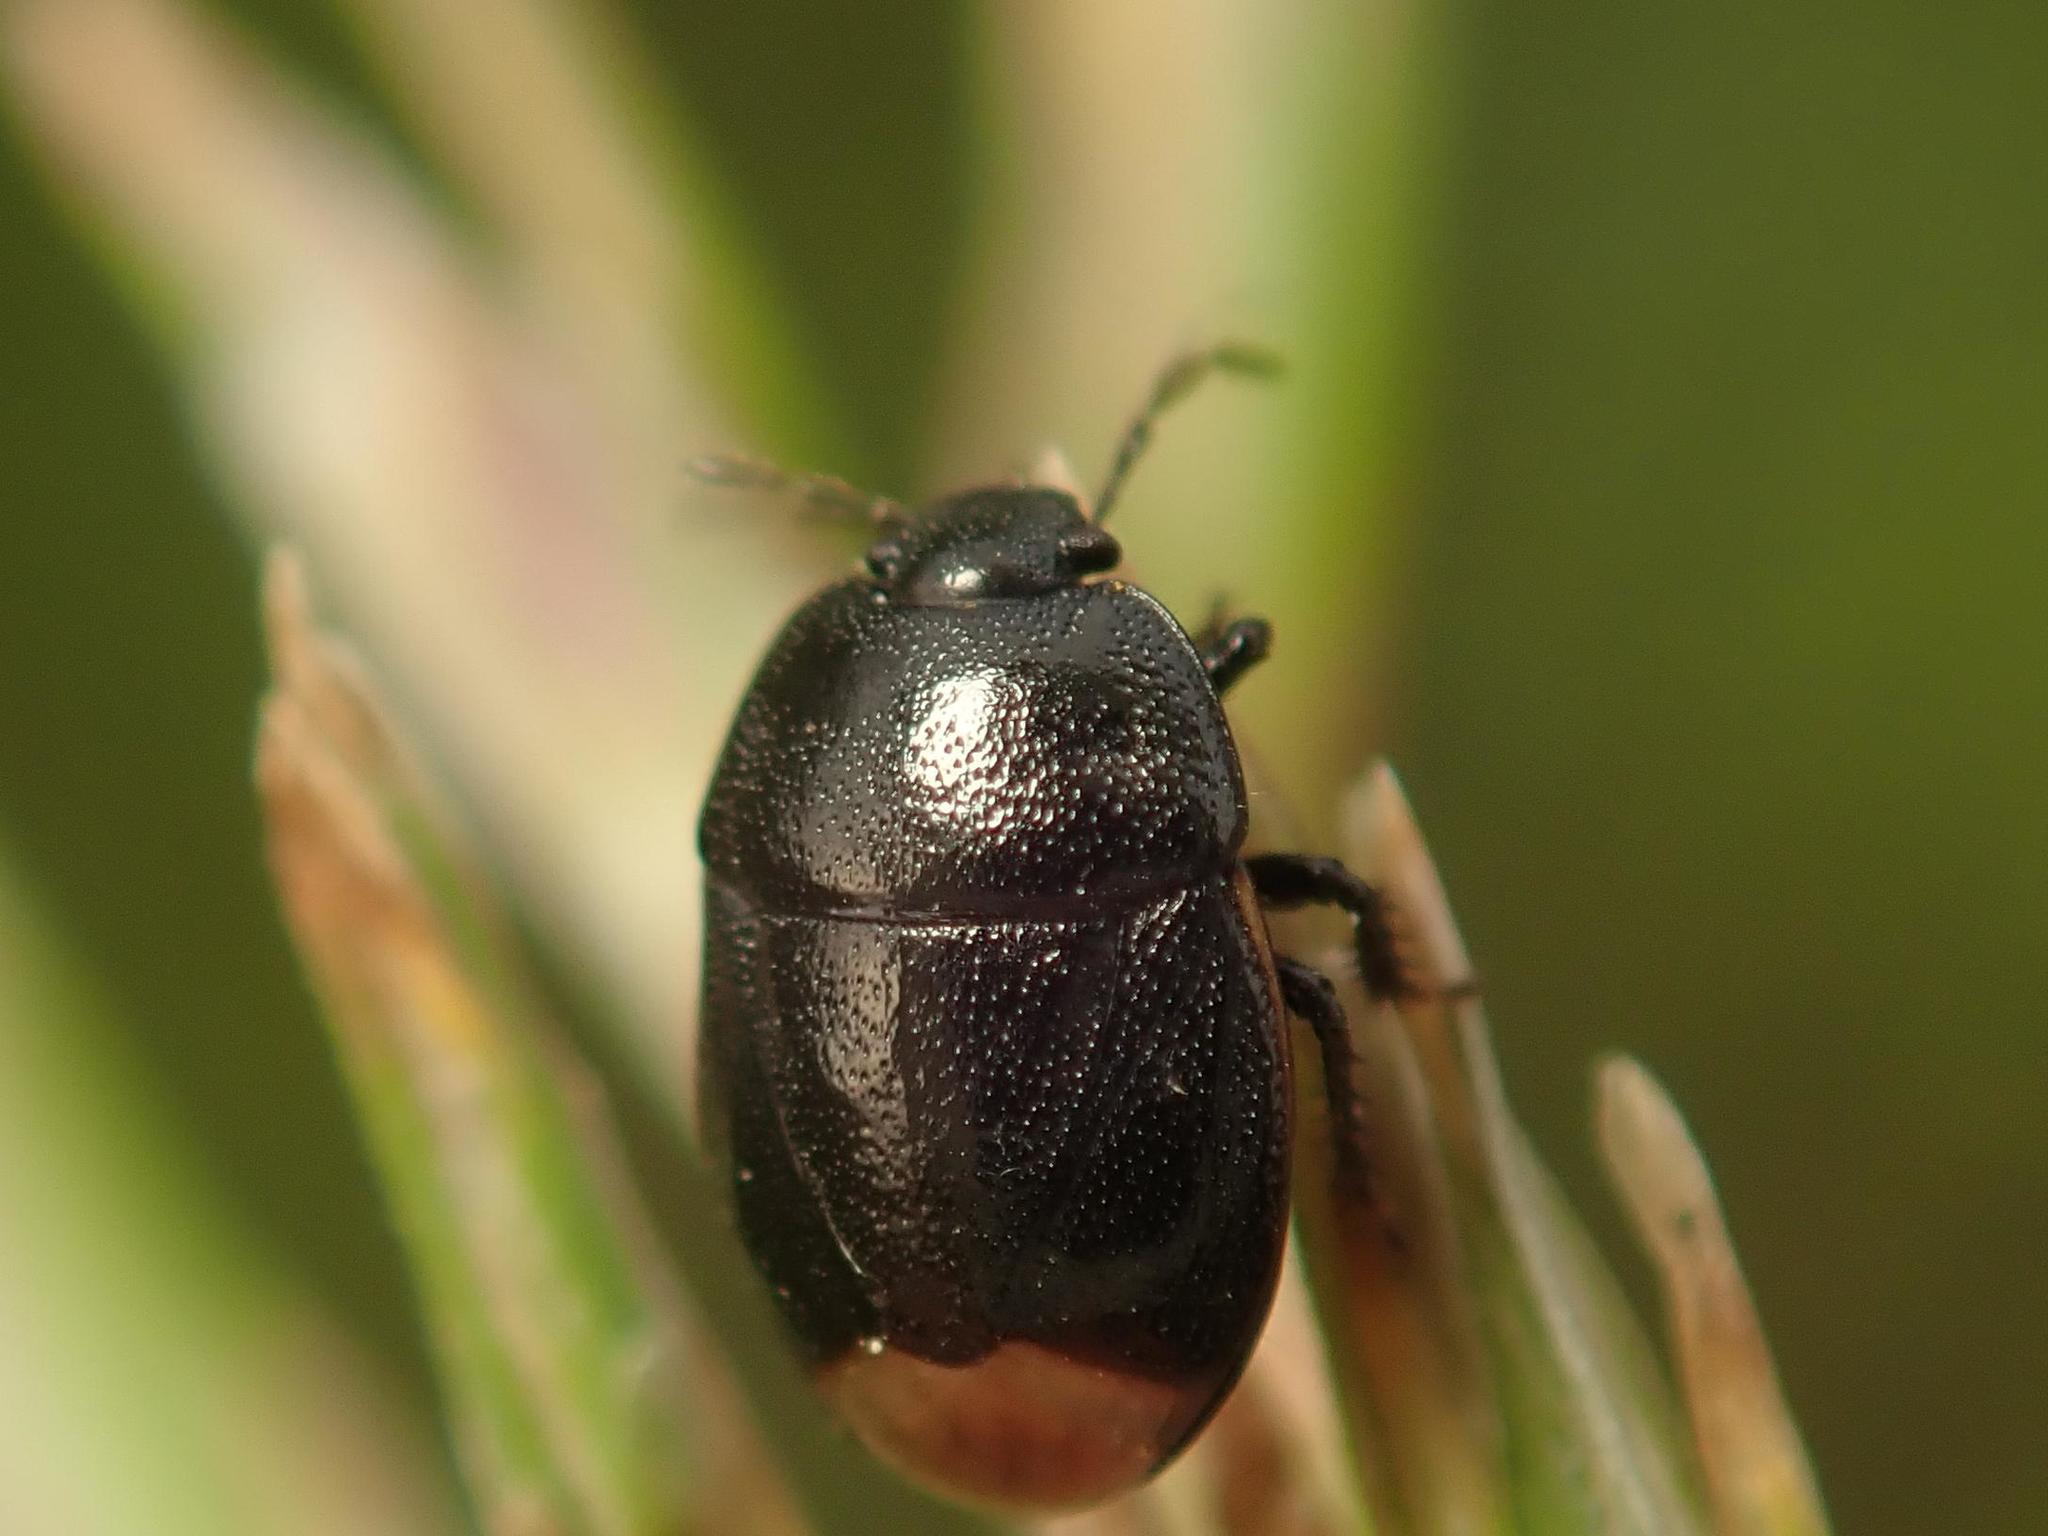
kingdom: Animalia
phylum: Arthropoda
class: Insecta
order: Hemiptera
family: Cydnidae
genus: Legnotus
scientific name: Legnotus picipes
